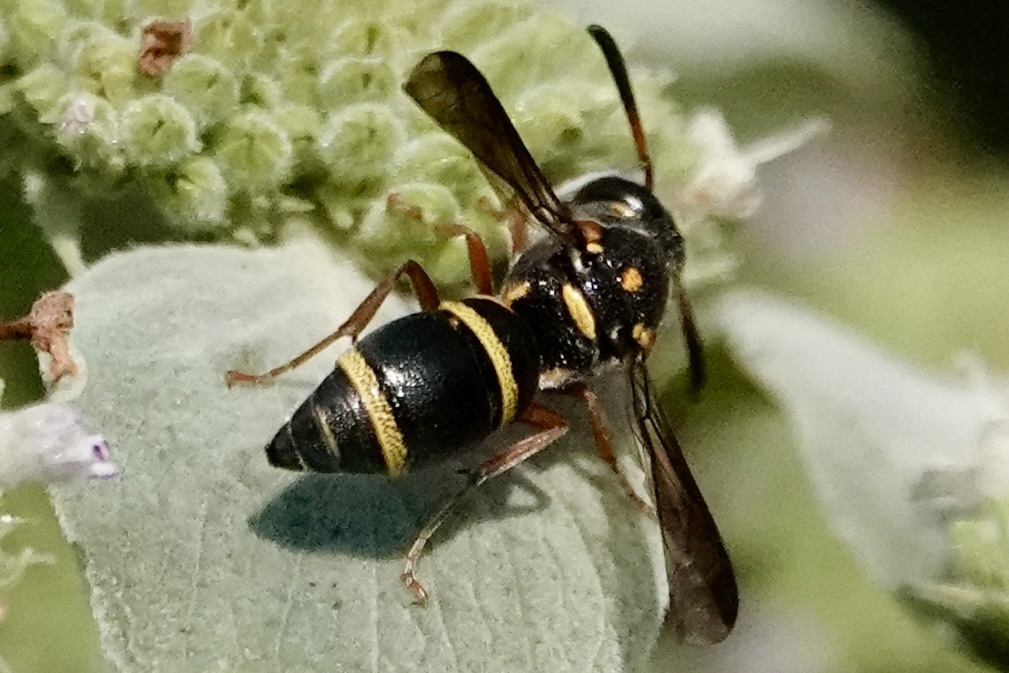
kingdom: Animalia
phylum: Arthropoda
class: Insecta
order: Hymenoptera
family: Eumenidae
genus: Parancistrocerus
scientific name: Parancistrocerus fulvipes
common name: Potter wasp
